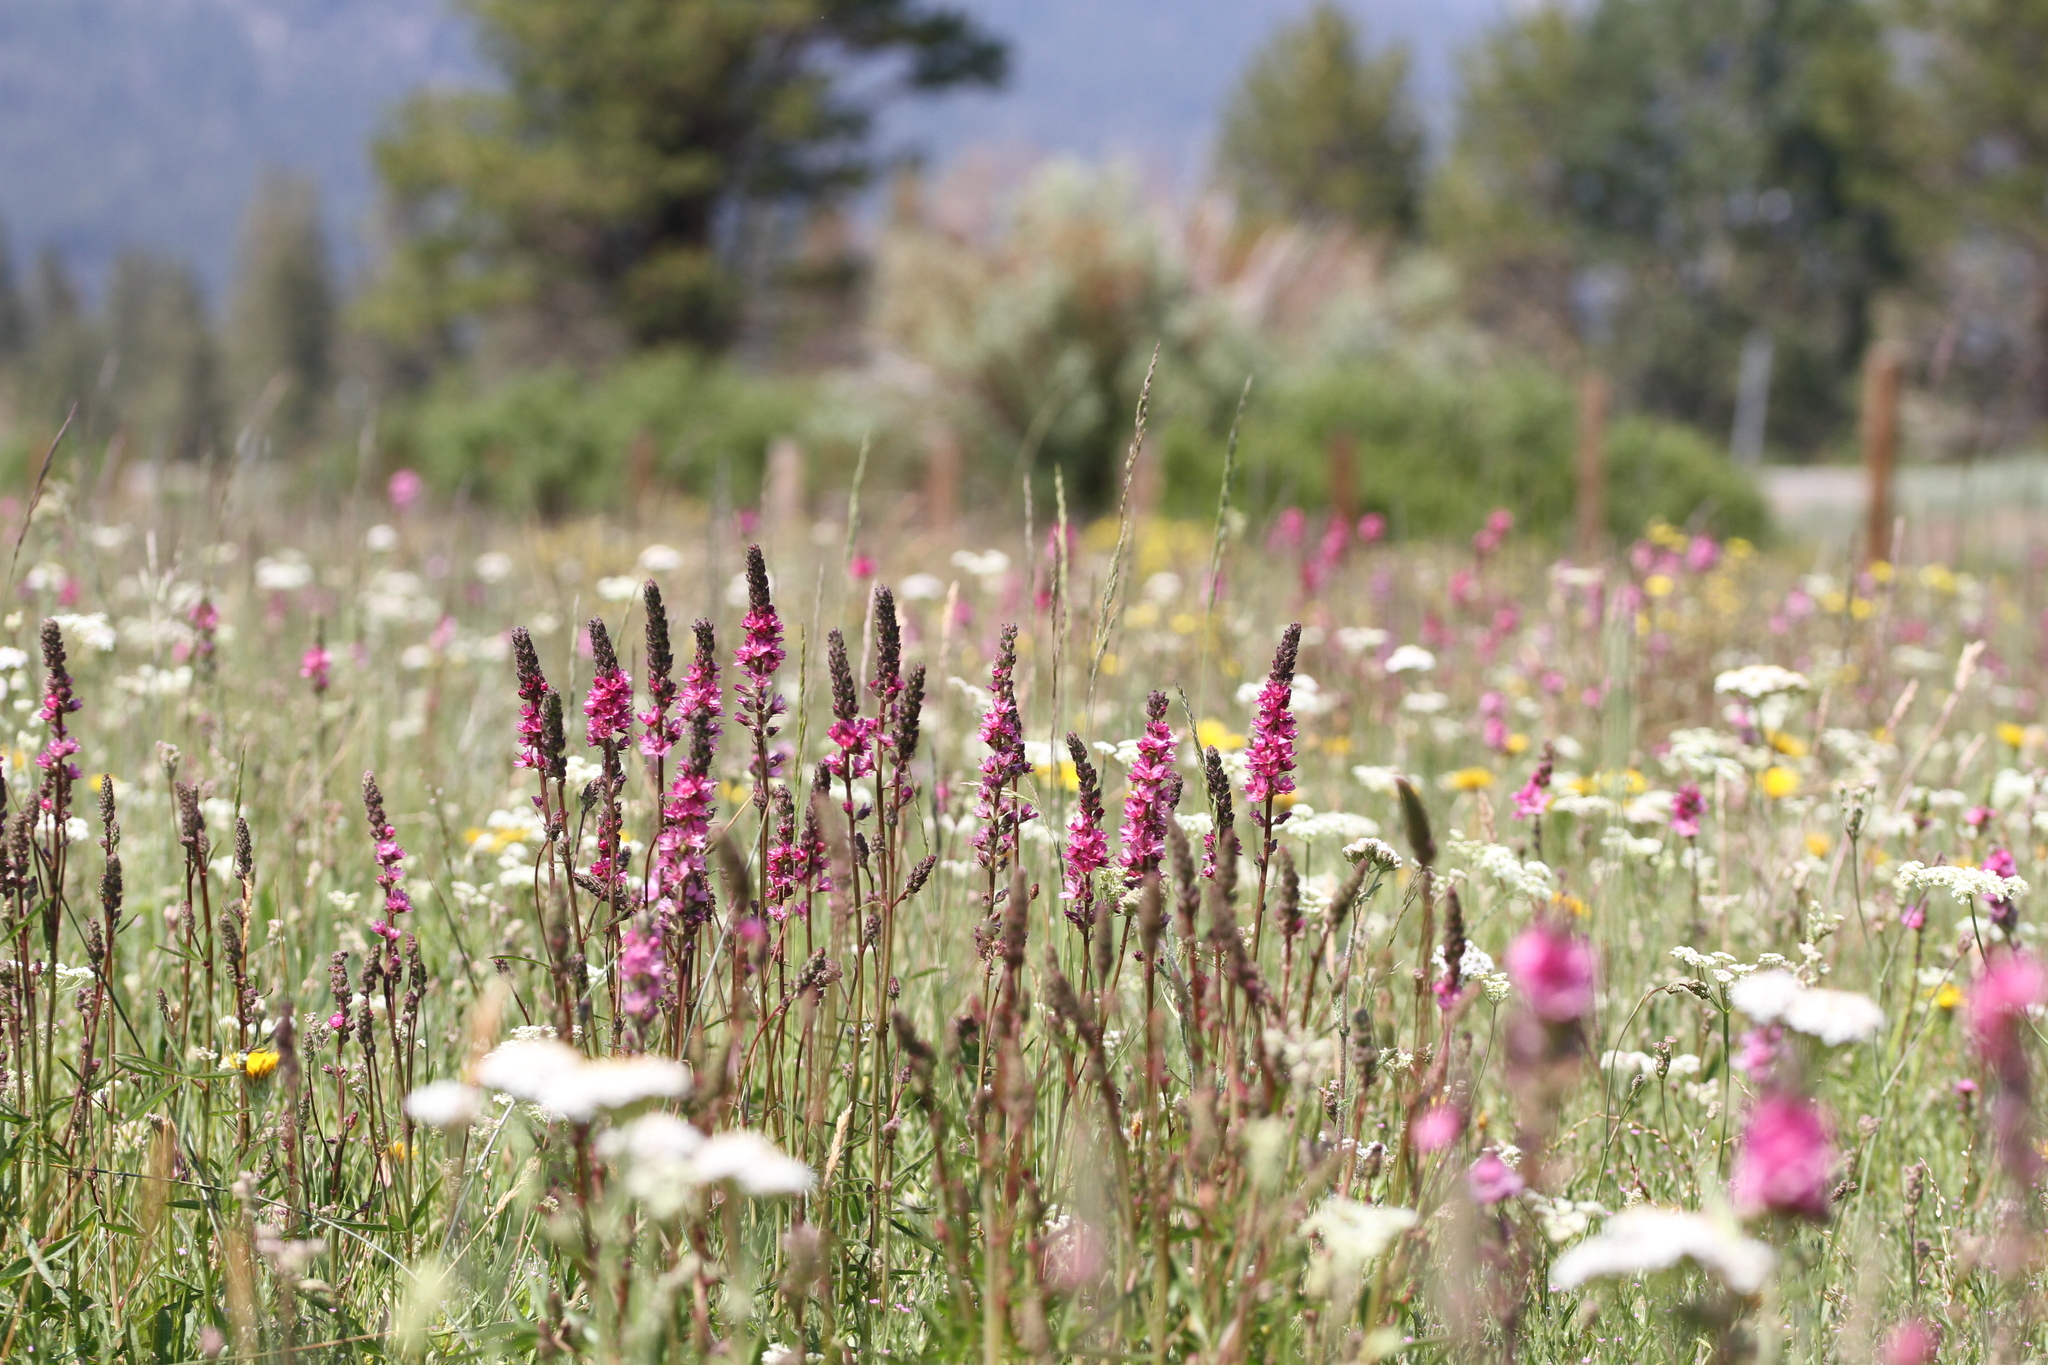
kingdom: Plantae
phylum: Tracheophyta
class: Magnoliopsida
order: Malvales
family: Malvaceae
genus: Sidalcea
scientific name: Sidalcea oregana
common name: Oregon checker-mallow
